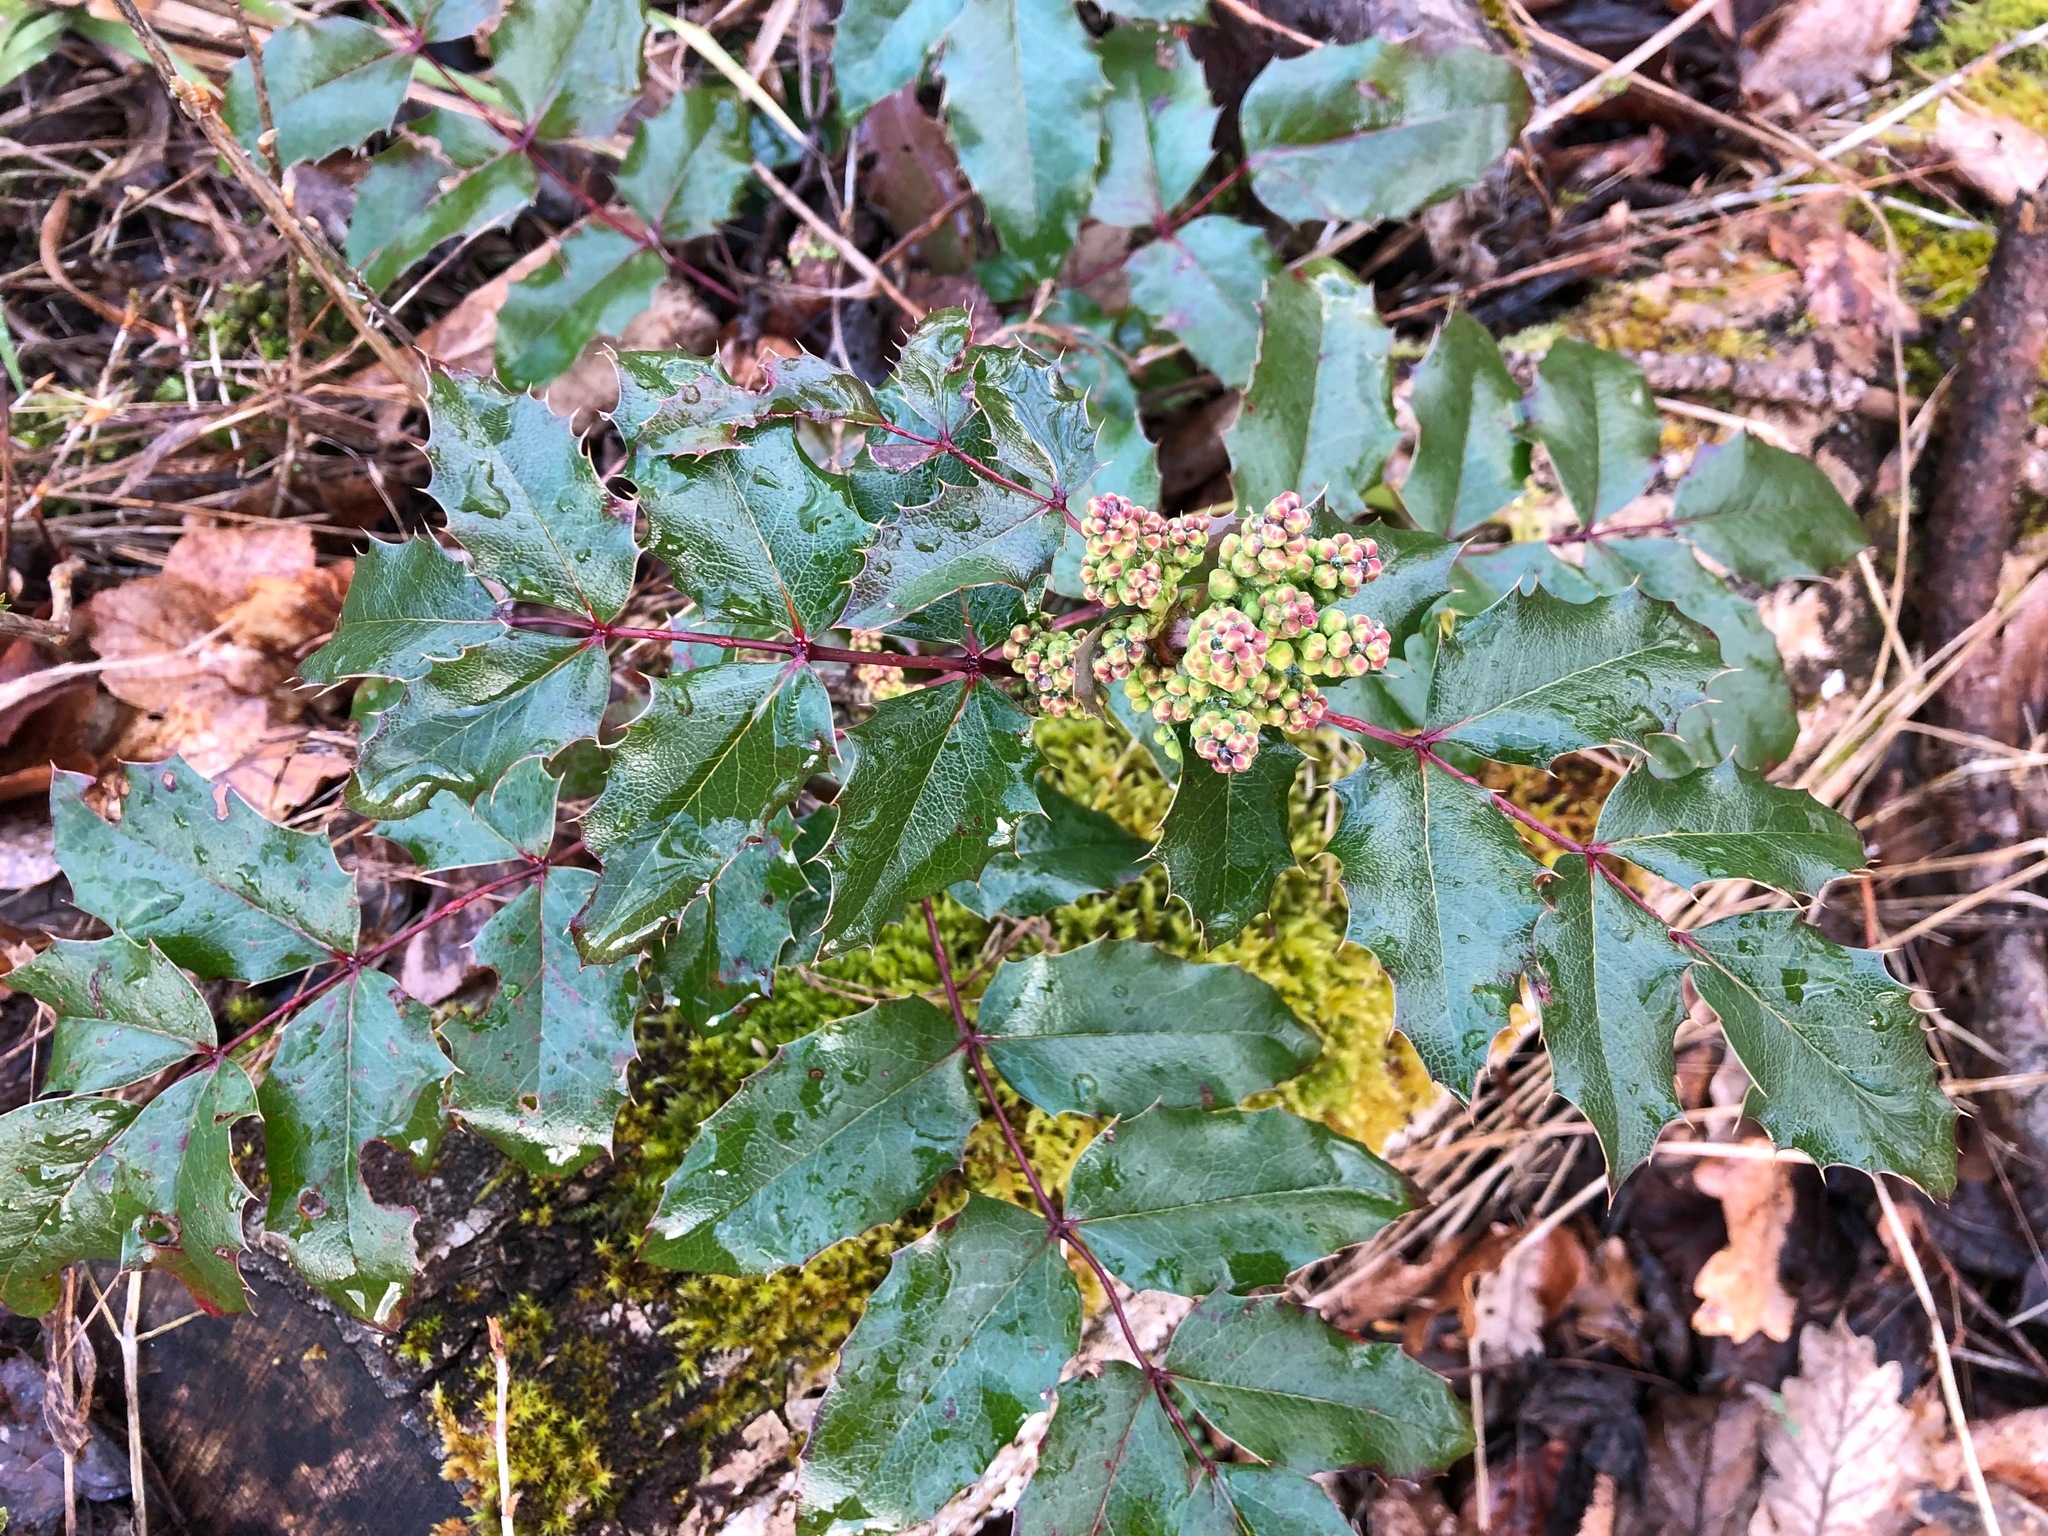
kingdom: Plantae
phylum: Tracheophyta
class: Magnoliopsida
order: Ranunculales
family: Berberidaceae
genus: Mahonia
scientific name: Mahonia aquifolium
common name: Oregon-grape
